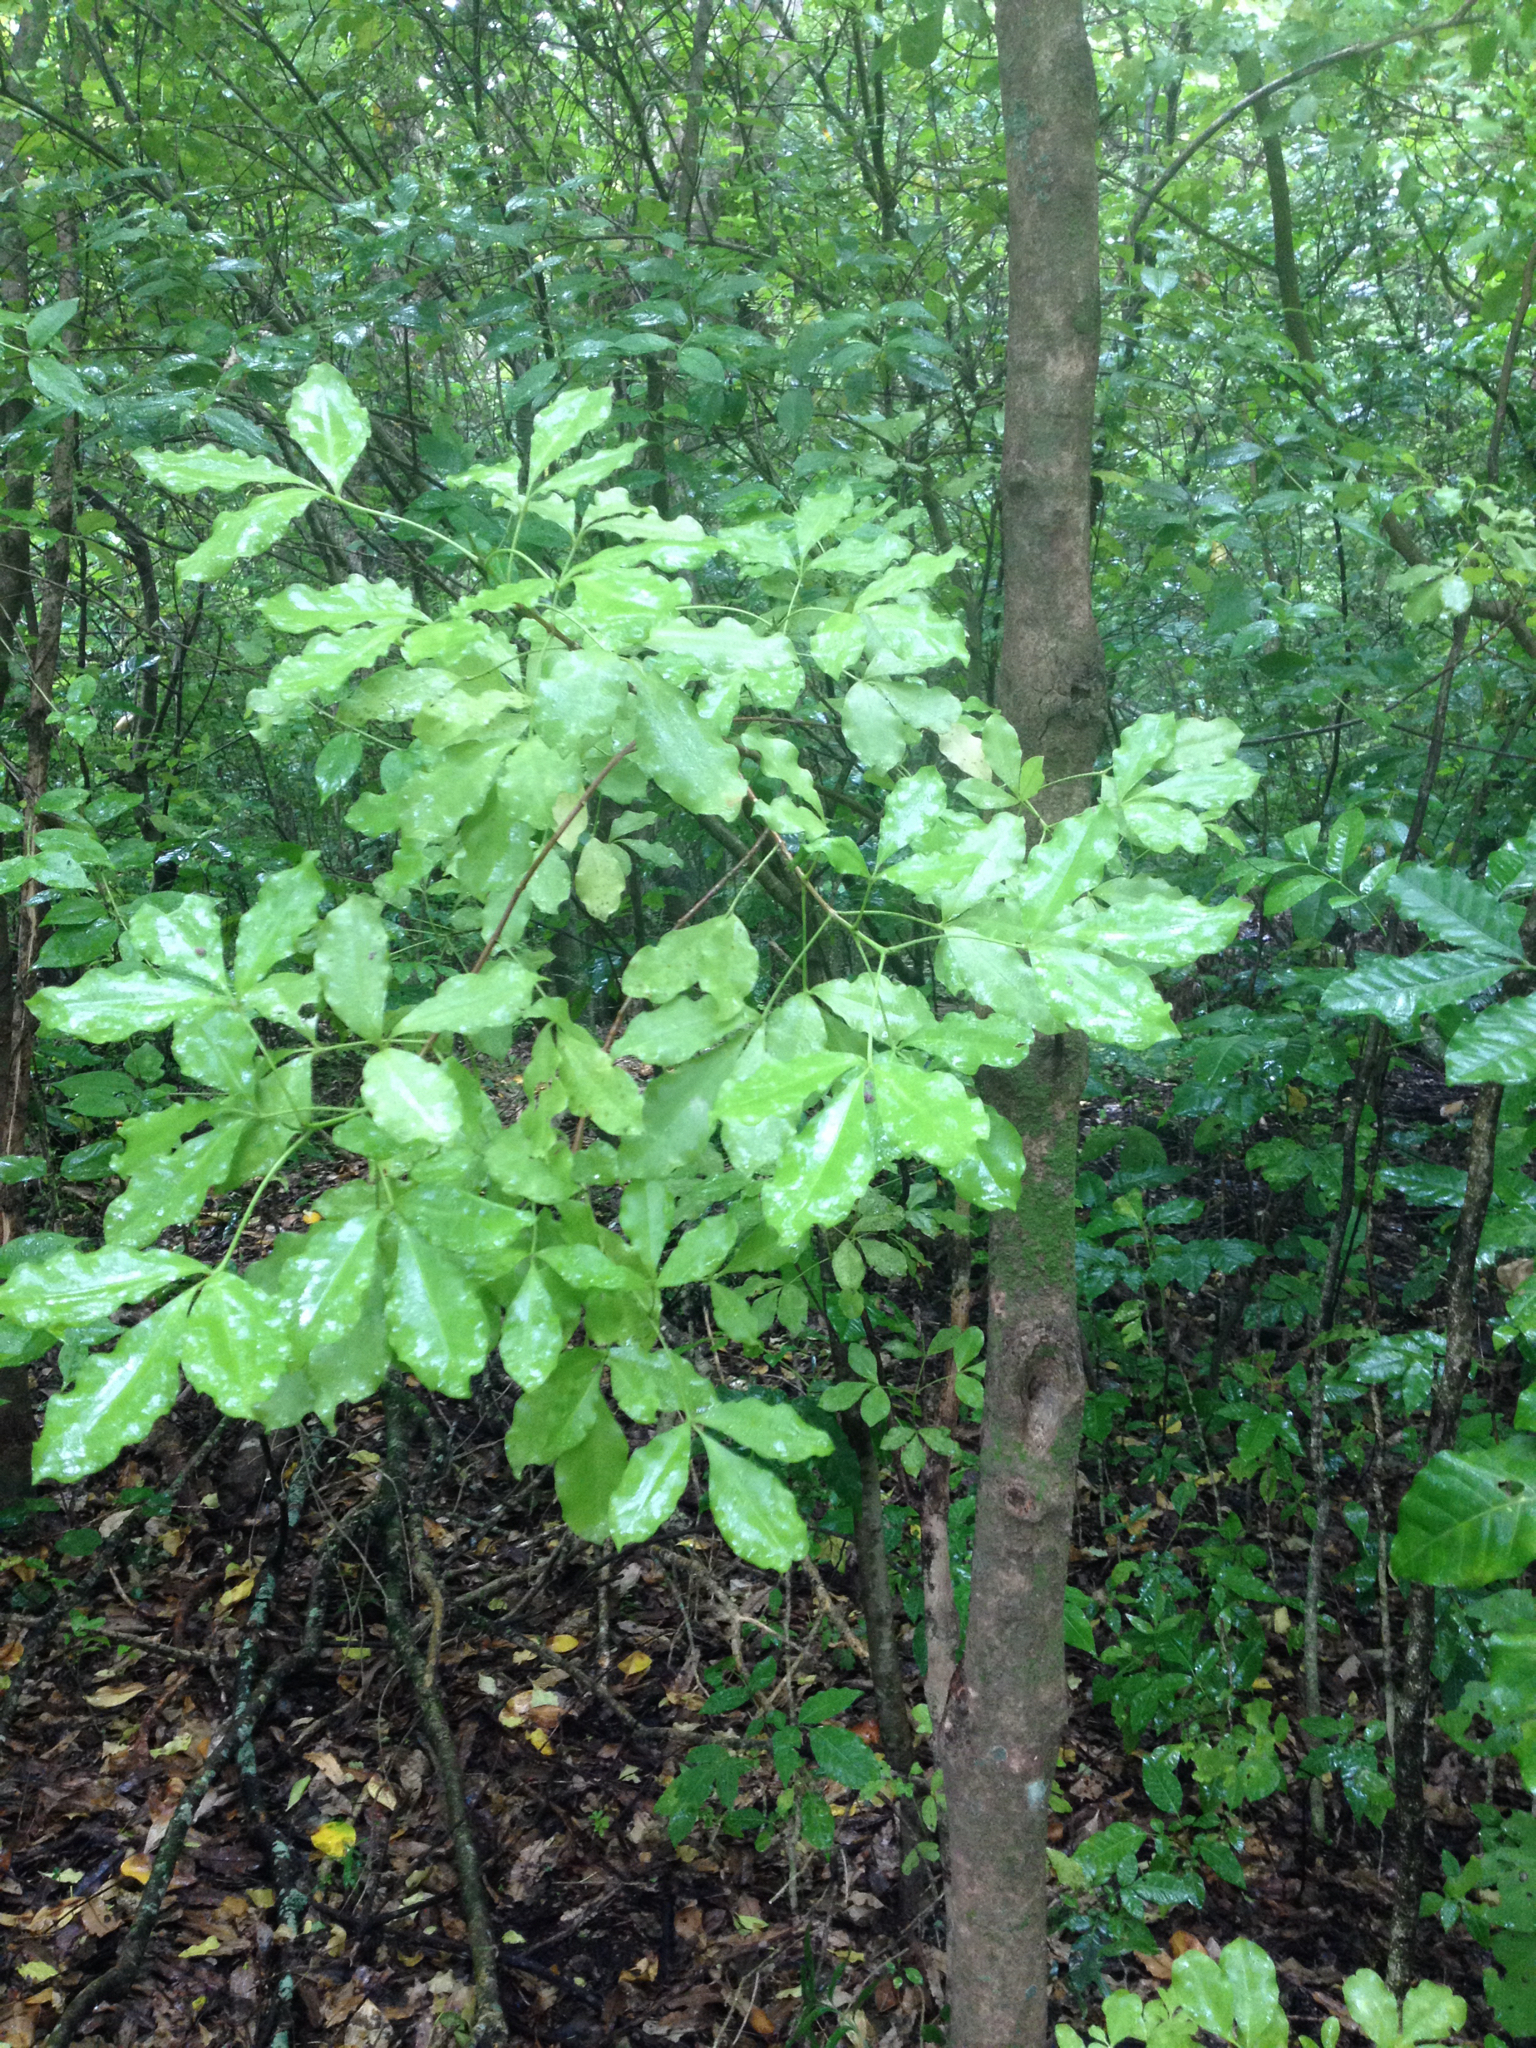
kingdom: Plantae
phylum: Tracheophyta
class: Magnoliopsida
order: Sapindales
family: Rutaceae
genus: Melicope
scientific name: Melicope ternata
